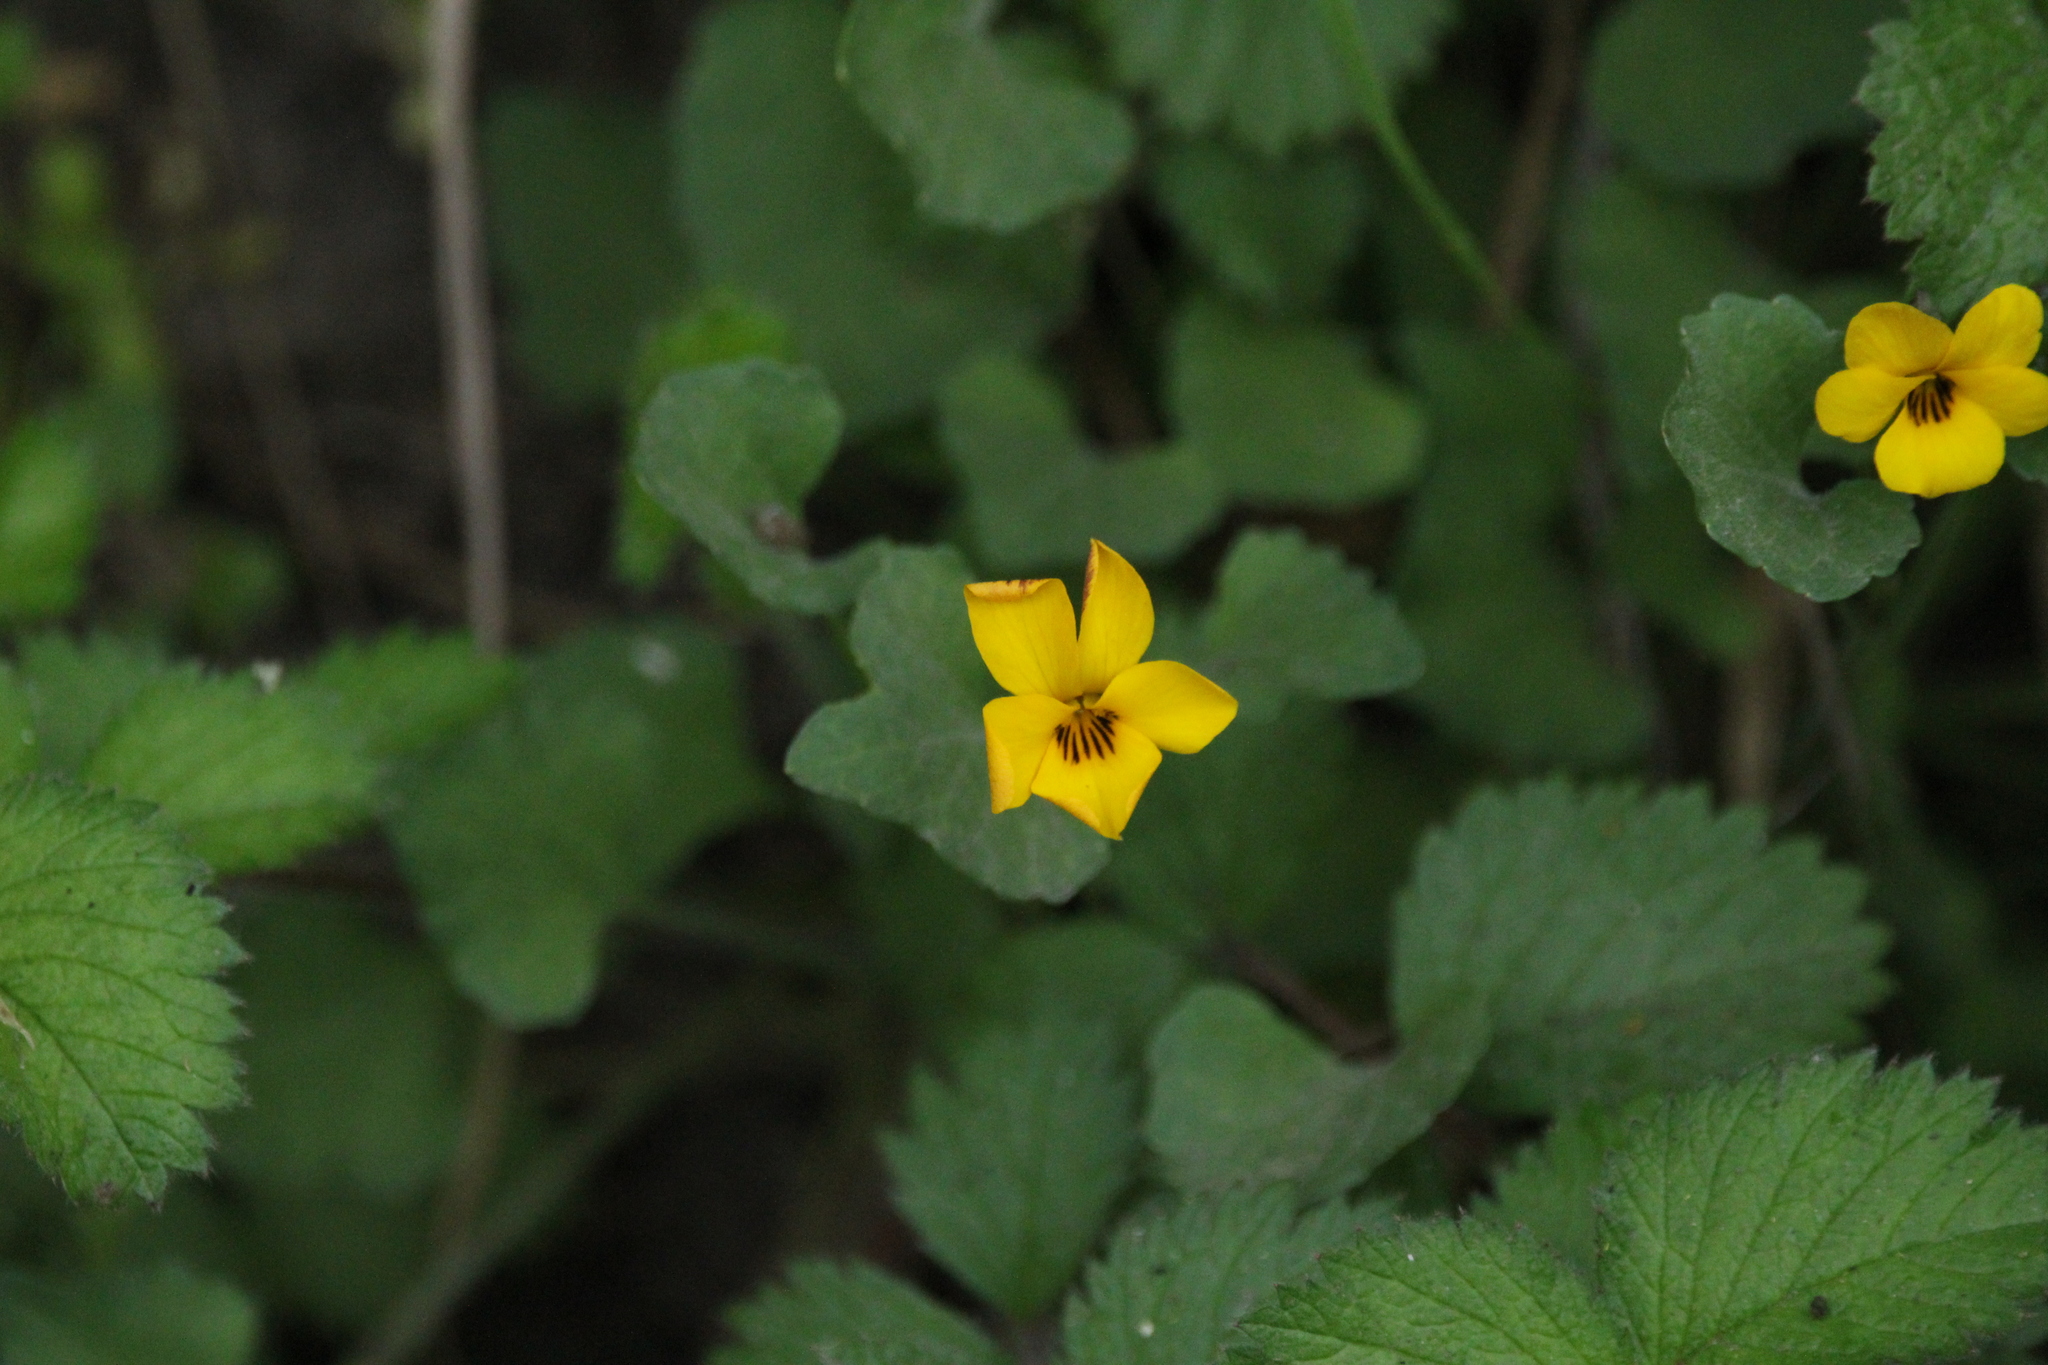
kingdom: Plantae
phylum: Tracheophyta
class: Magnoliopsida
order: Malpighiales
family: Violaceae
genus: Viola
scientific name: Viola pedunculata
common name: California golden violet
